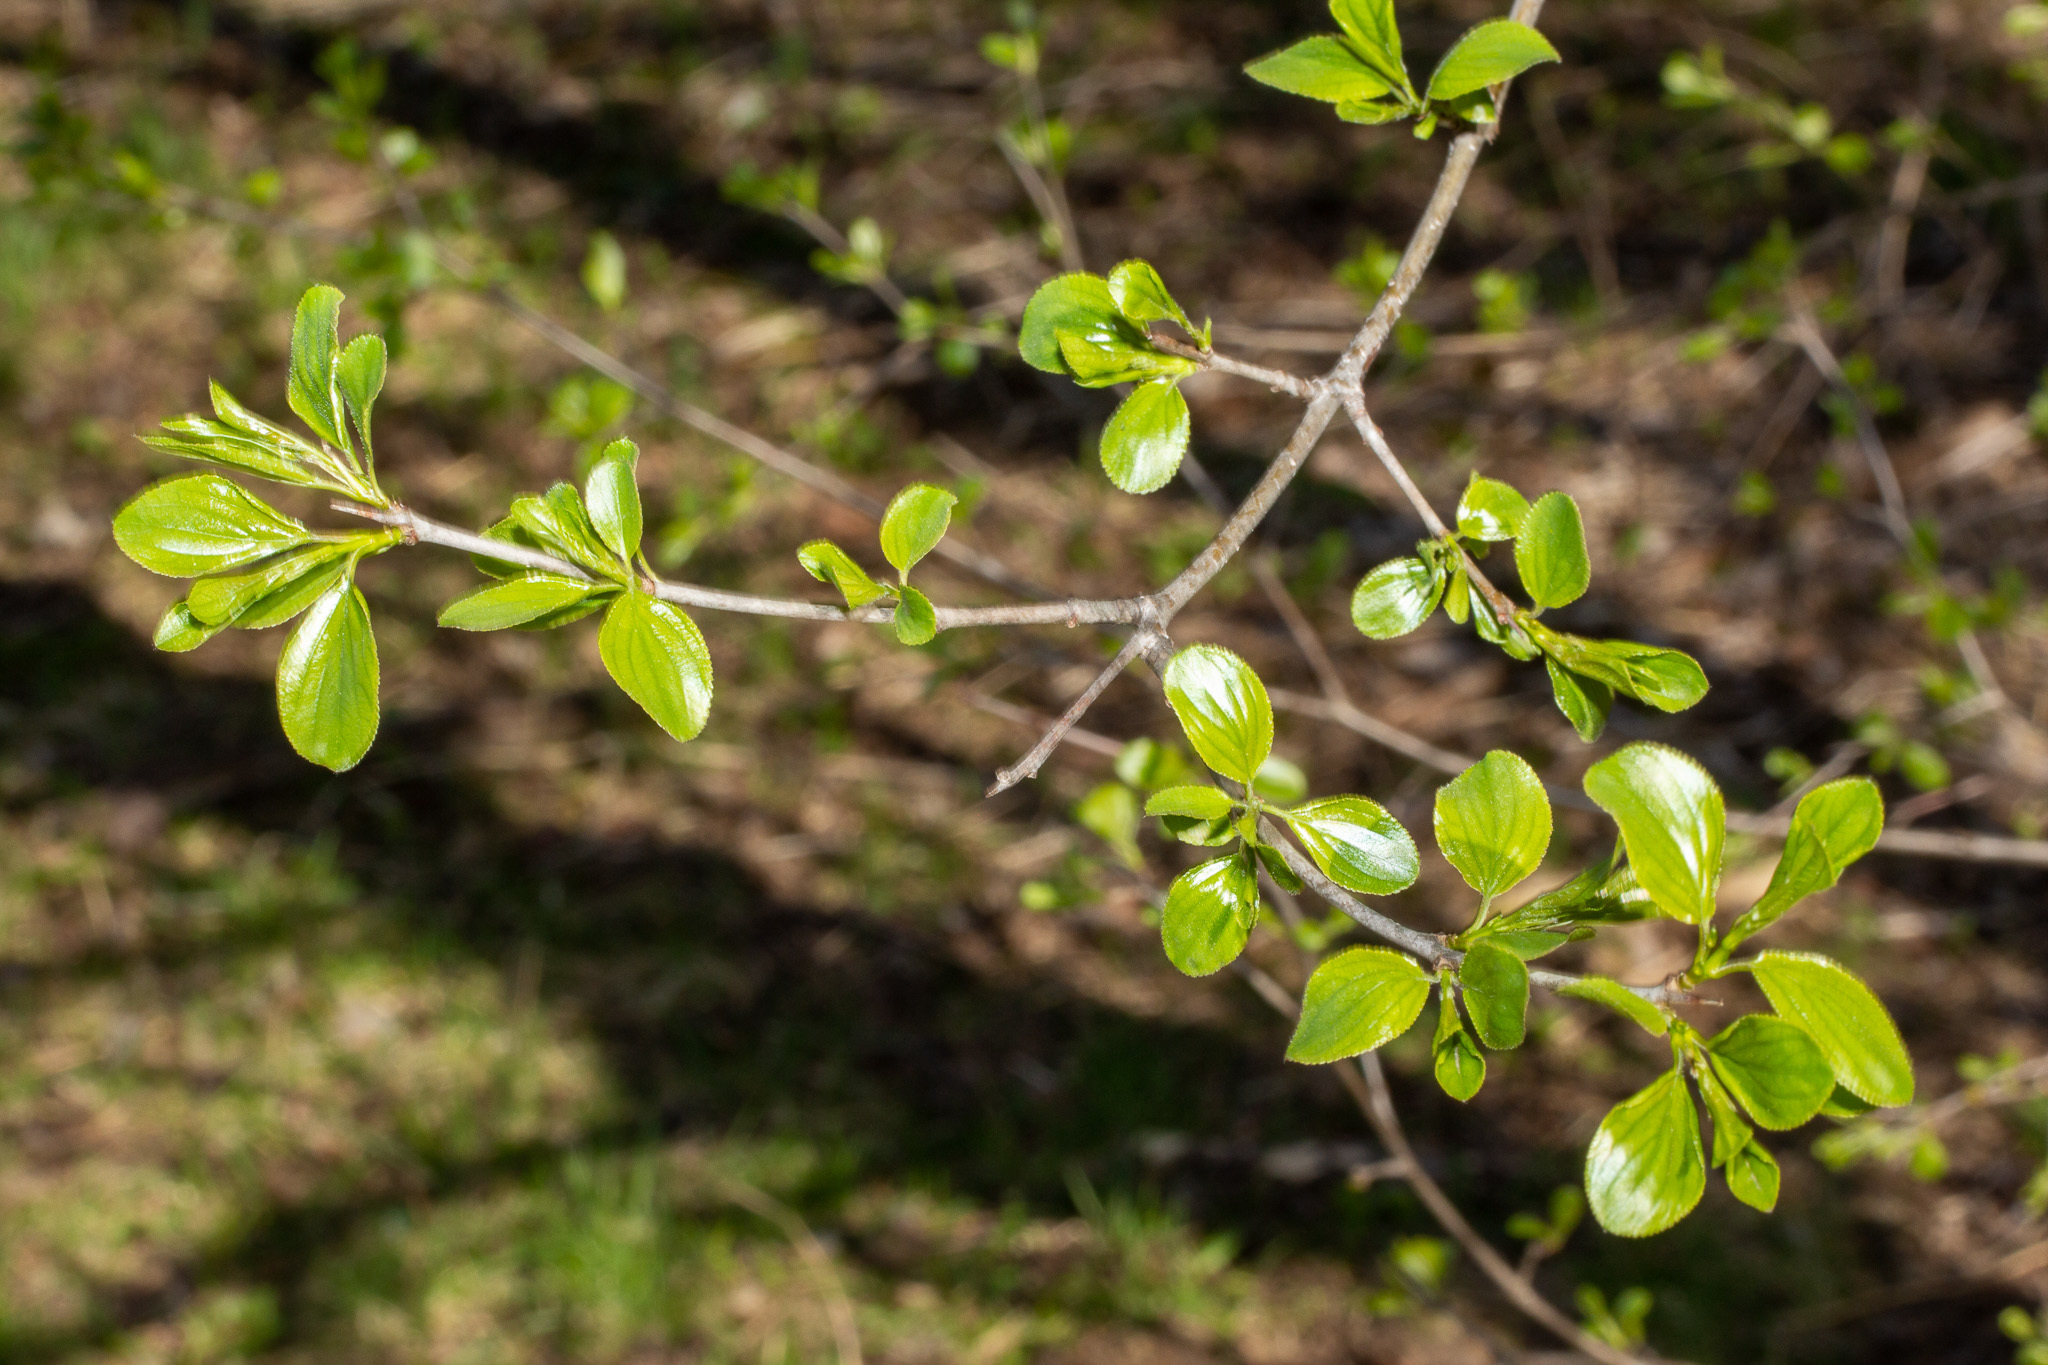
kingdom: Plantae
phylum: Tracheophyta
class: Magnoliopsida
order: Rosales
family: Rhamnaceae
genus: Rhamnus
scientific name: Rhamnus cathartica
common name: Common buckthorn
